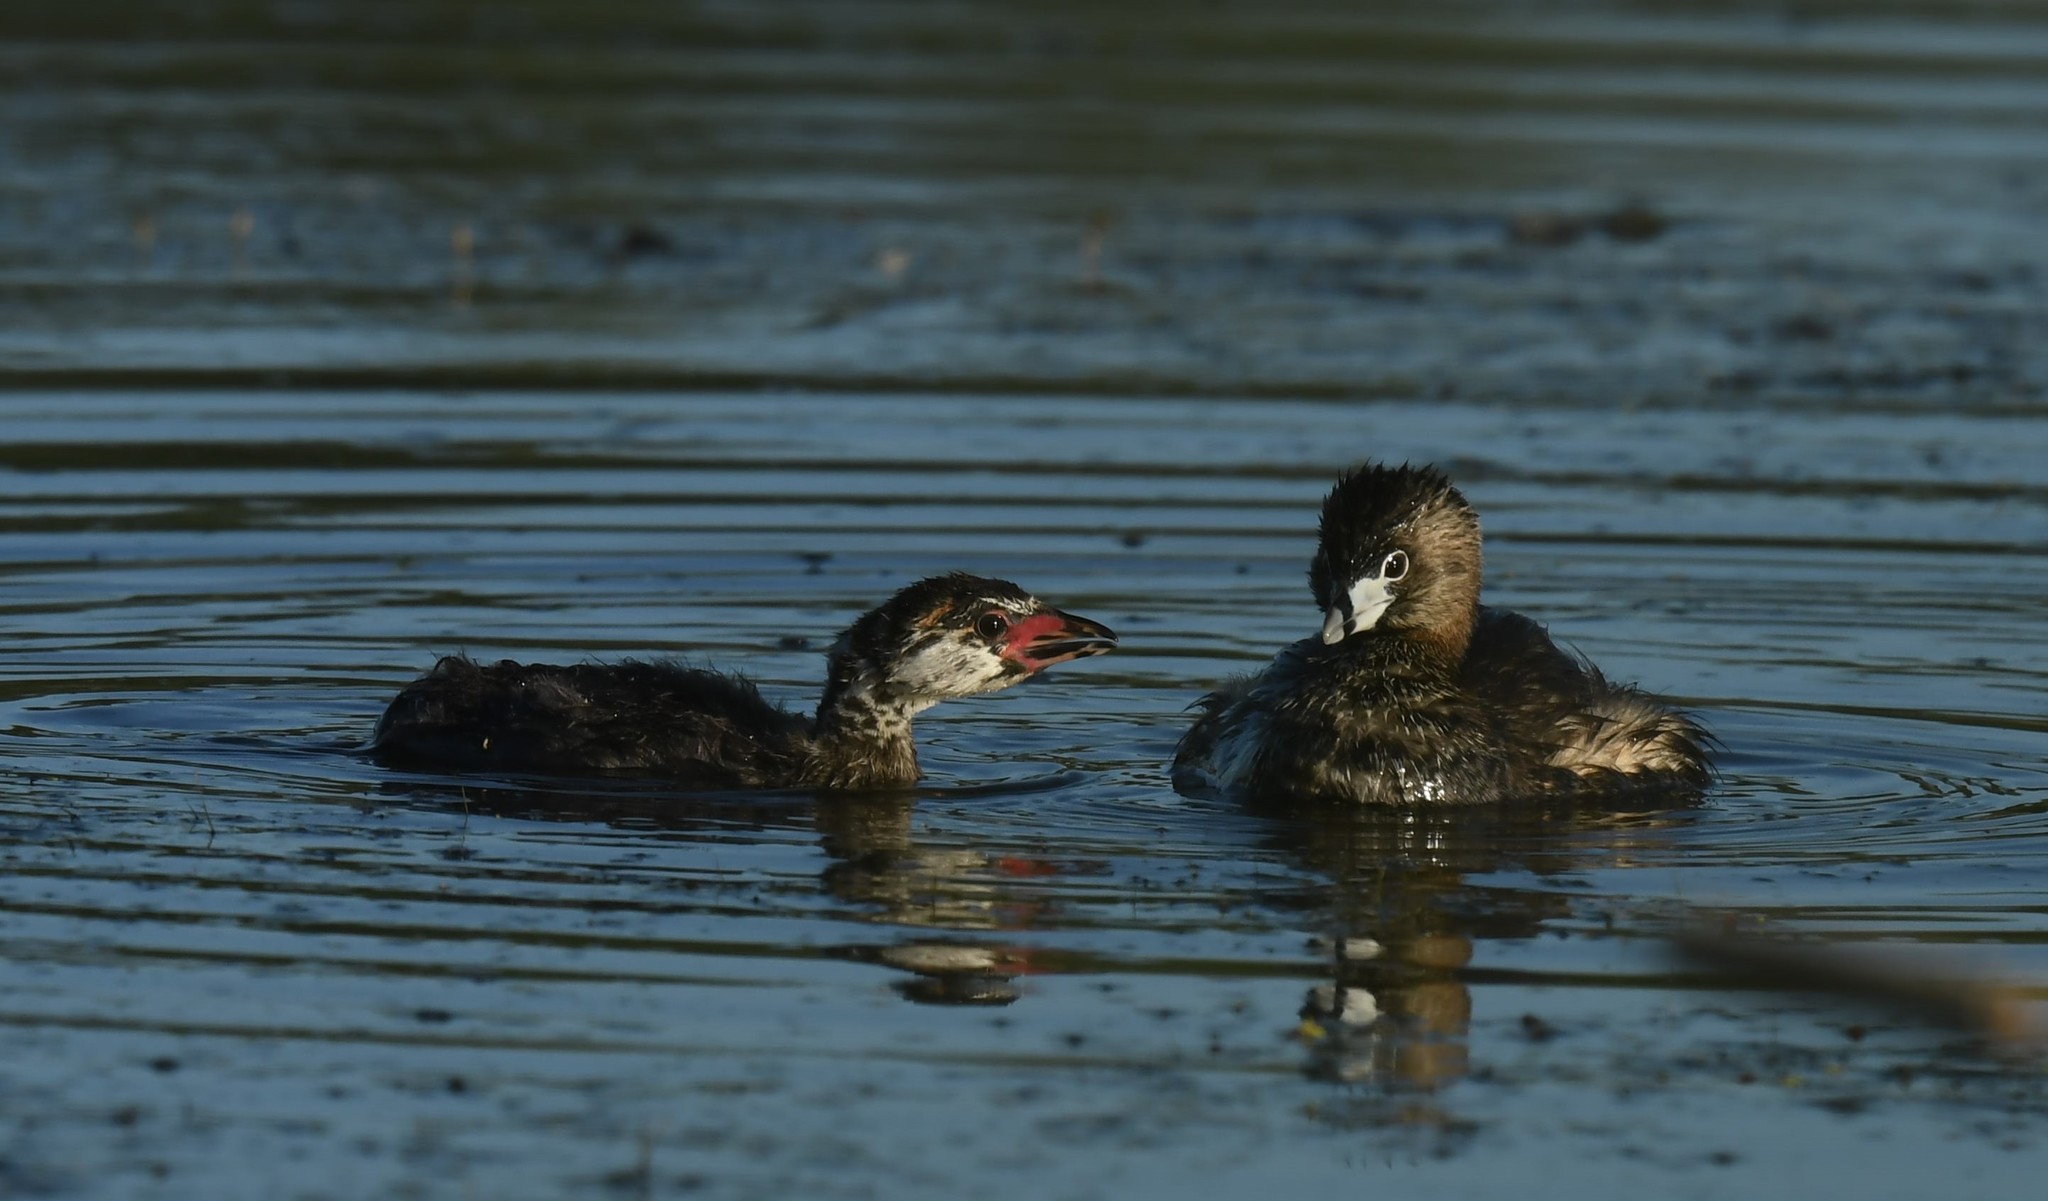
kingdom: Animalia
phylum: Chordata
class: Aves
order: Podicipediformes
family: Podicipedidae
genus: Podilymbus
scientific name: Podilymbus podiceps
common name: Pied-billed grebe
